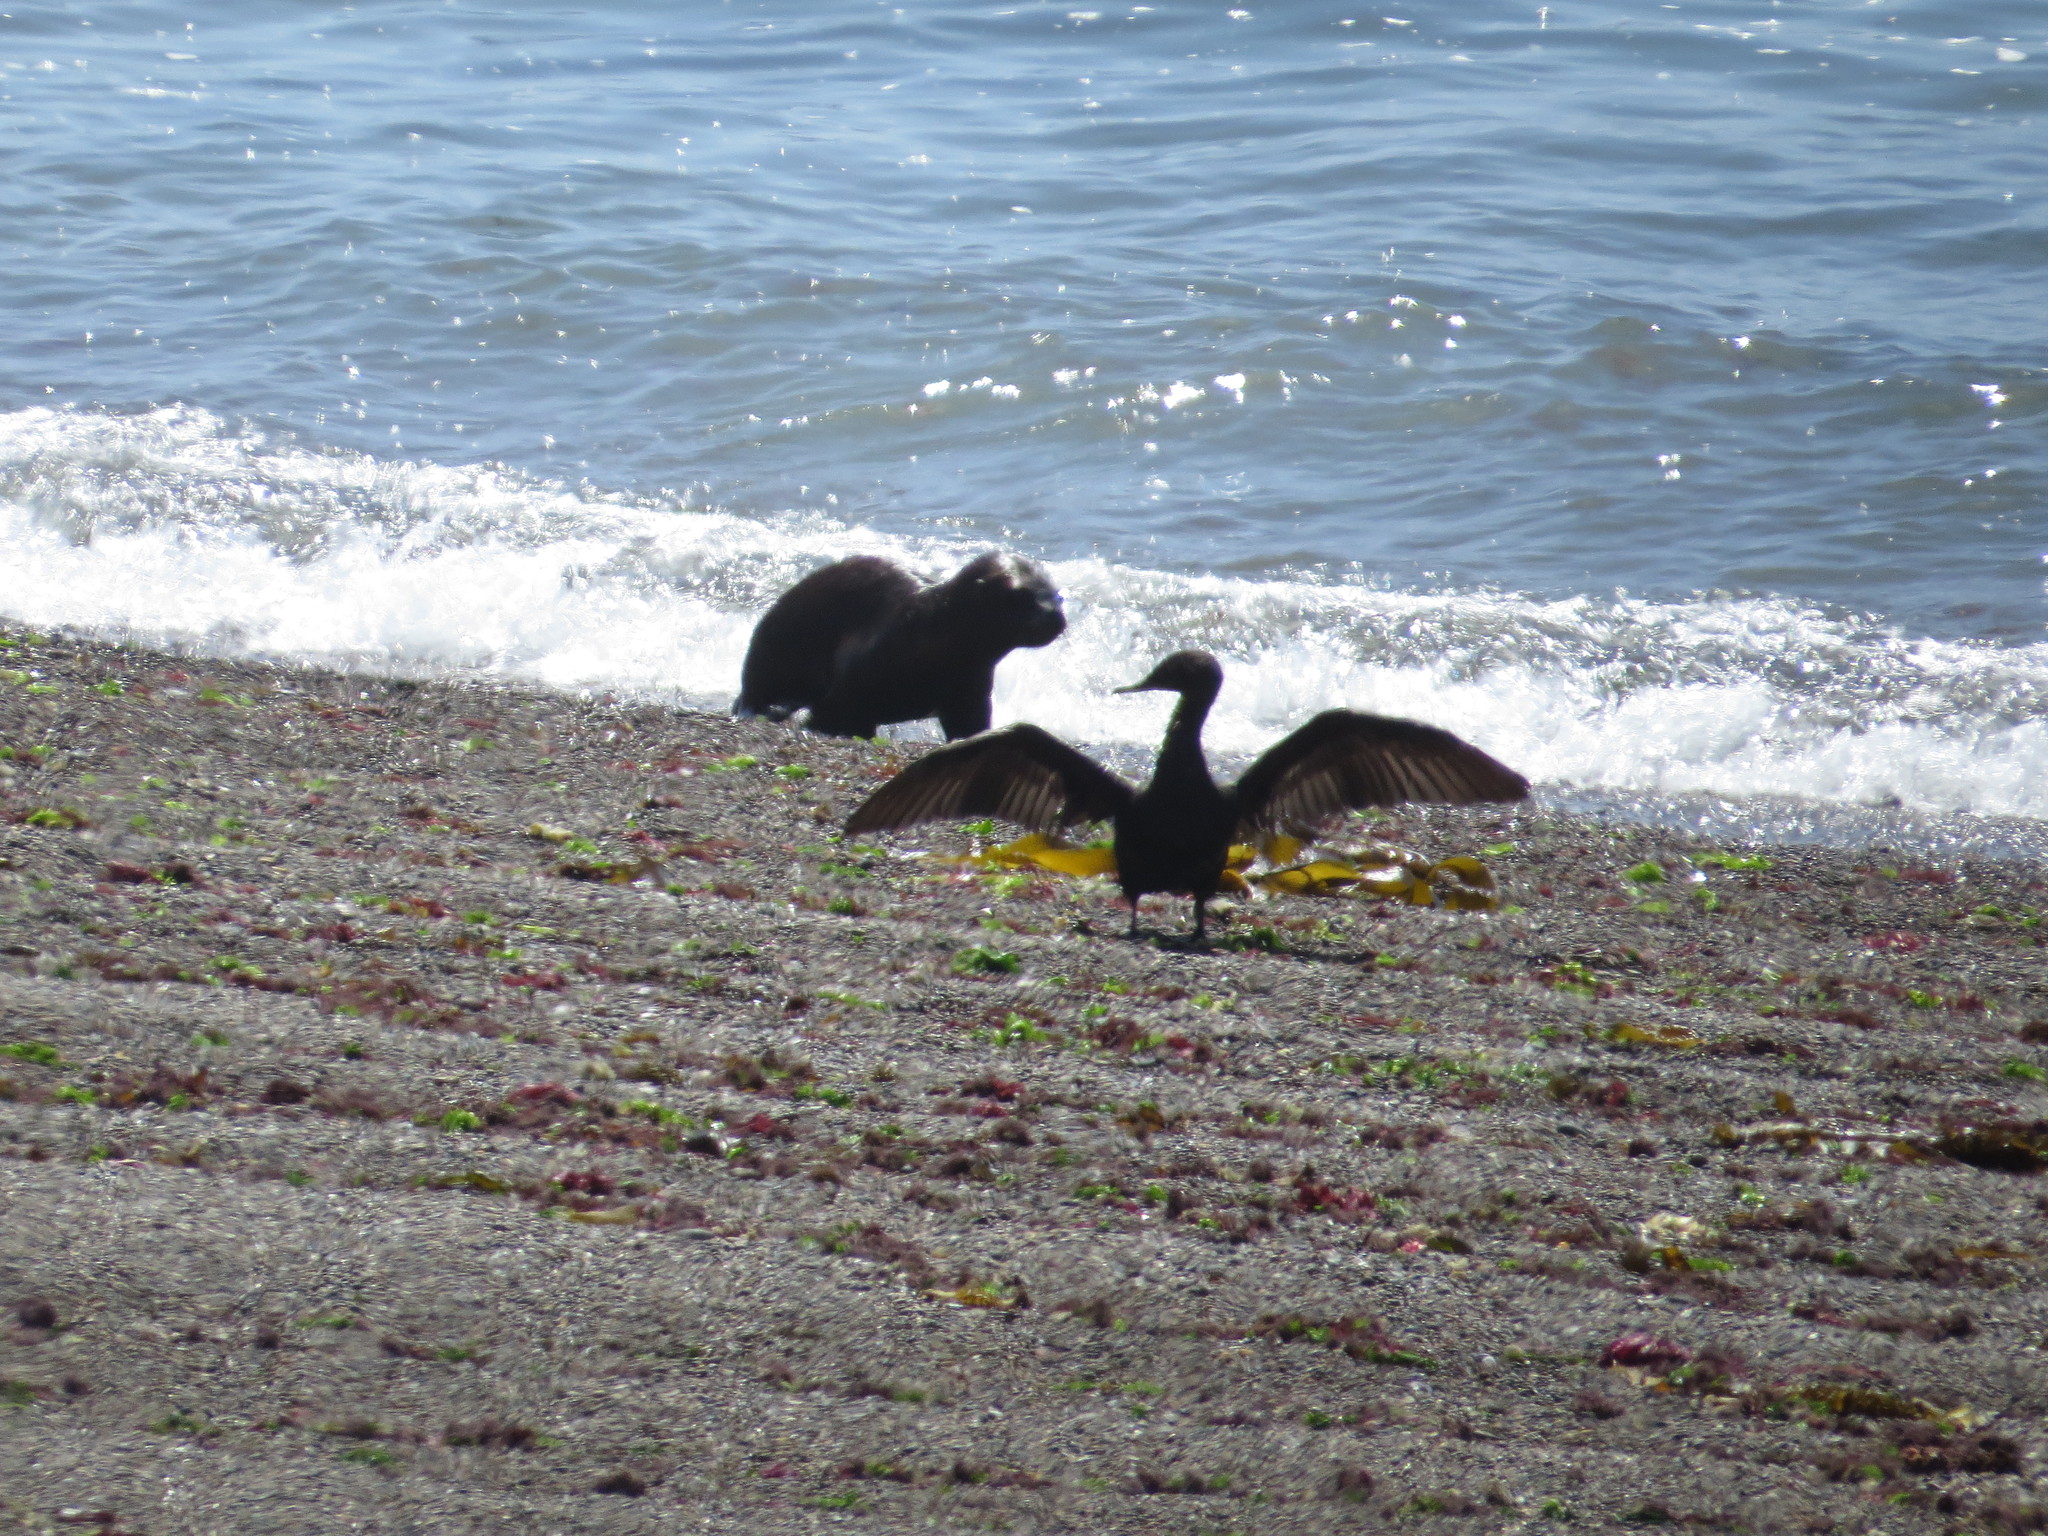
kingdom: Animalia
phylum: Chordata
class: Aves
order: Suliformes
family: Phalacrocoracidae
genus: Phalacrocorax
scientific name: Phalacrocorax brasilianus
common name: Neotropic cormorant
